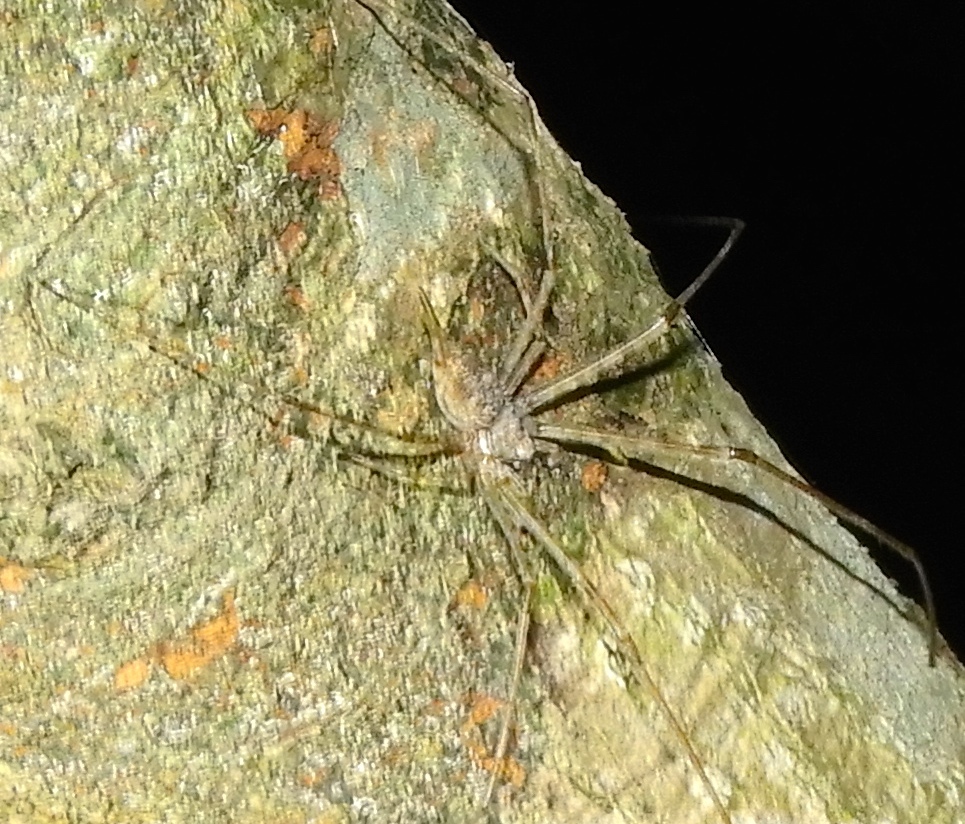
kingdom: Animalia
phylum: Arthropoda
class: Arachnida
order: Araneae
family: Hersiliidae
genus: Neotama
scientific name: Neotama mexicana
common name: Tree trunk spiders
